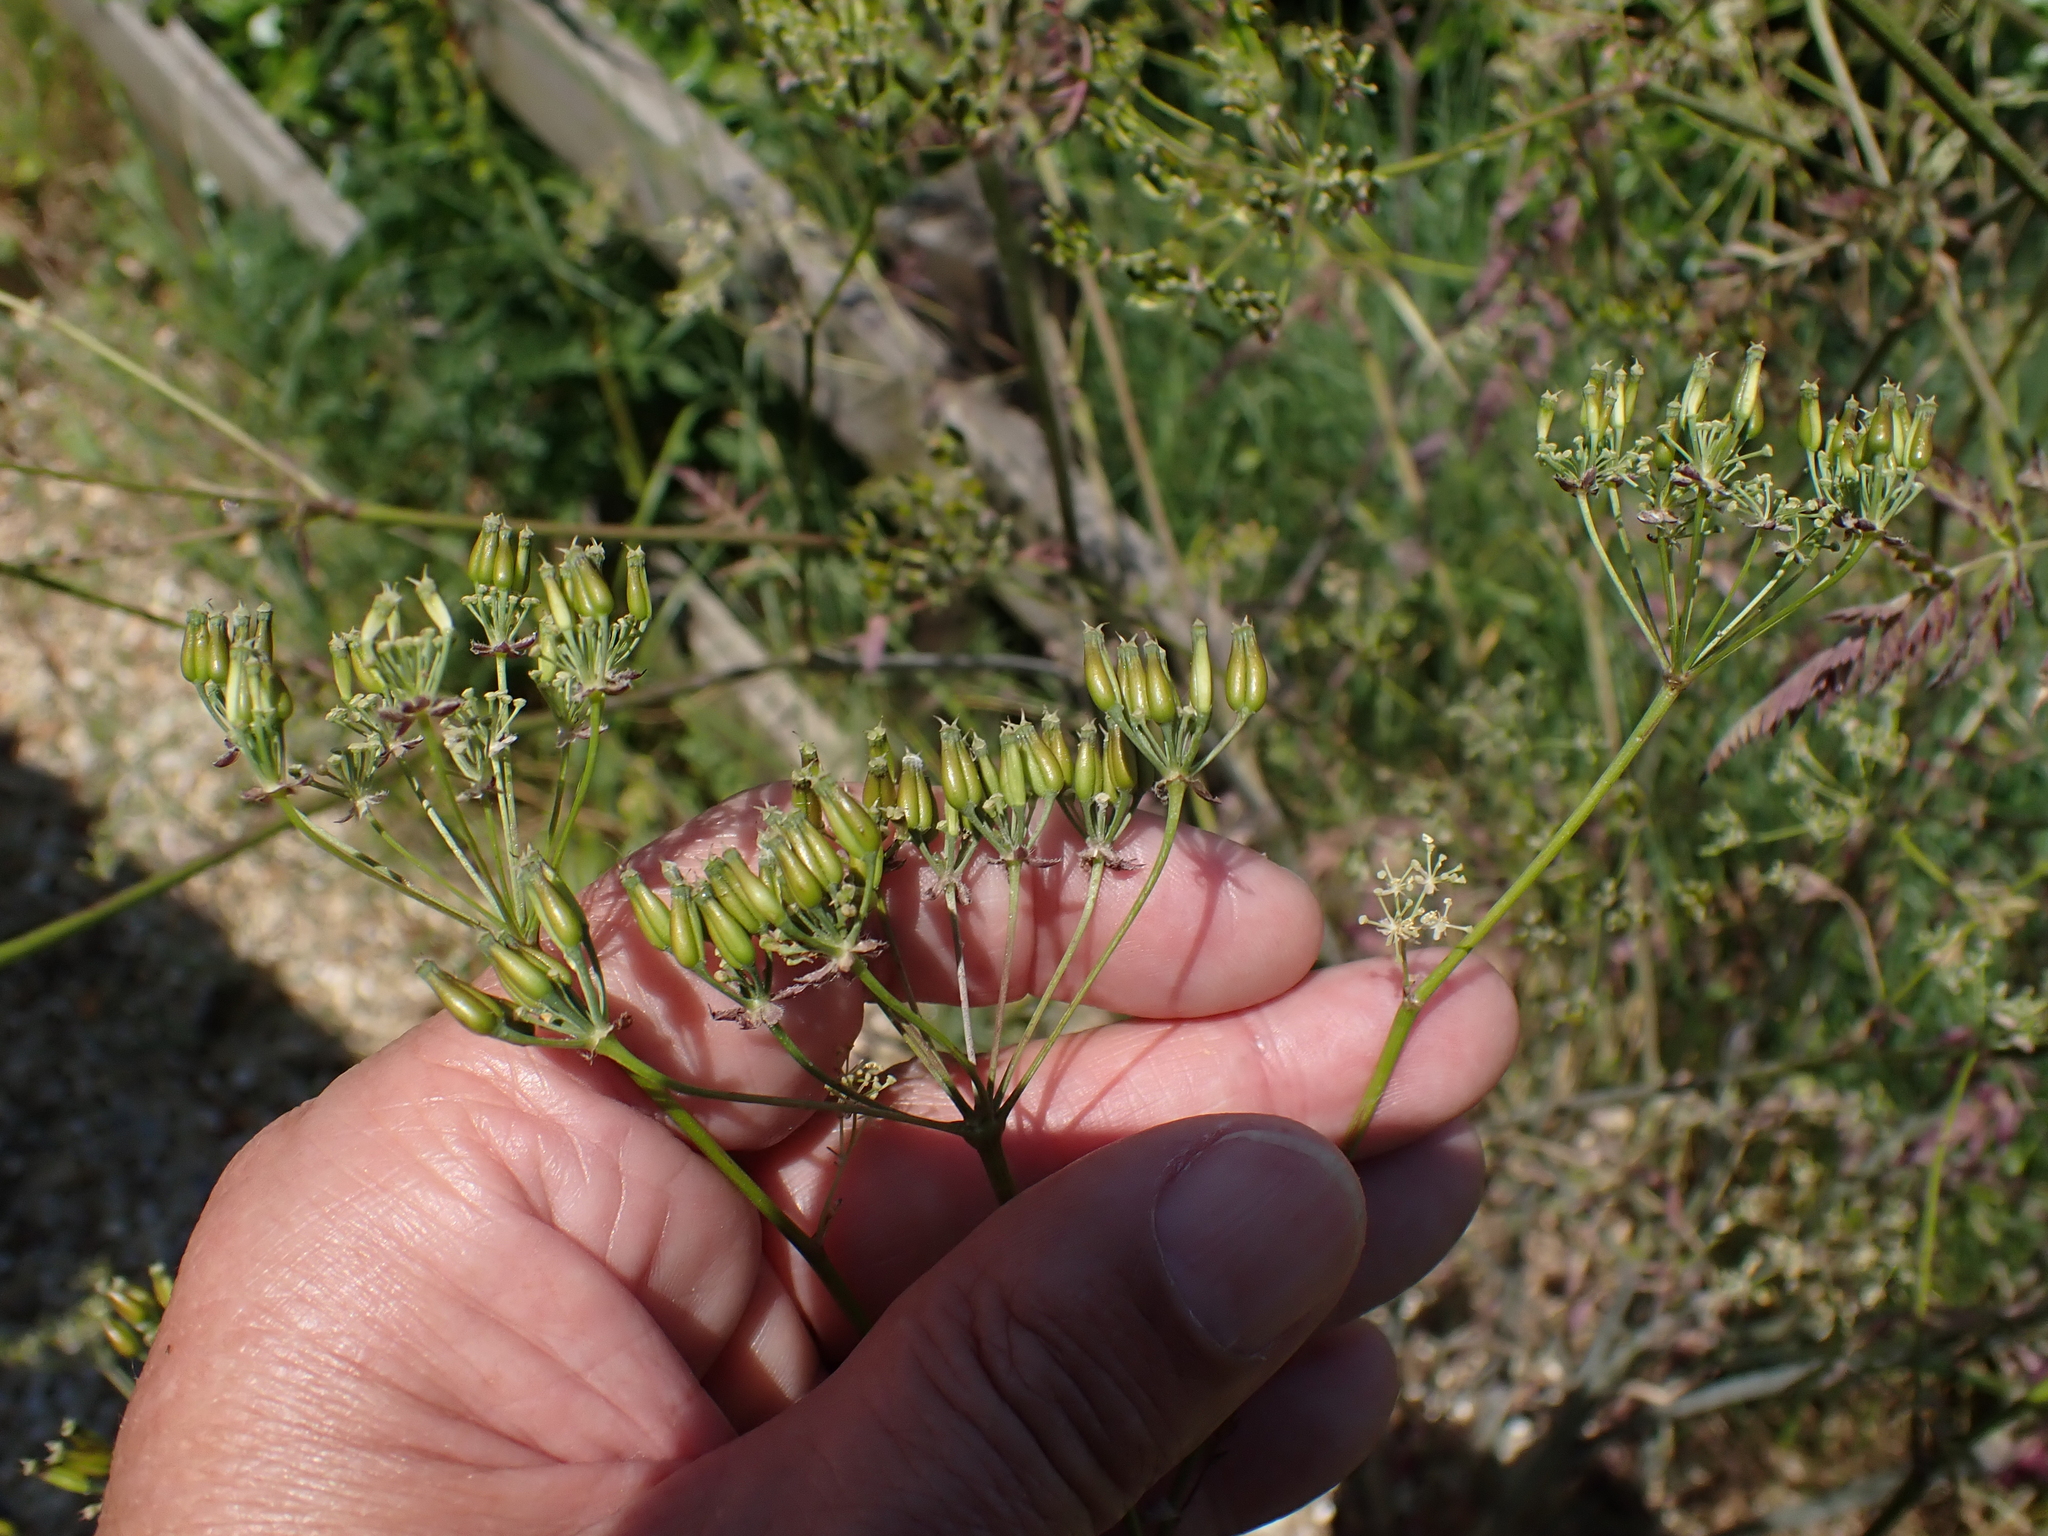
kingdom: Plantae
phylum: Tracheophyta
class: Magnoliopsida
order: Apiales
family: Apiaceae
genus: Anthriscus
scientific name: Anthriscus sylvestris
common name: Cow parsley
